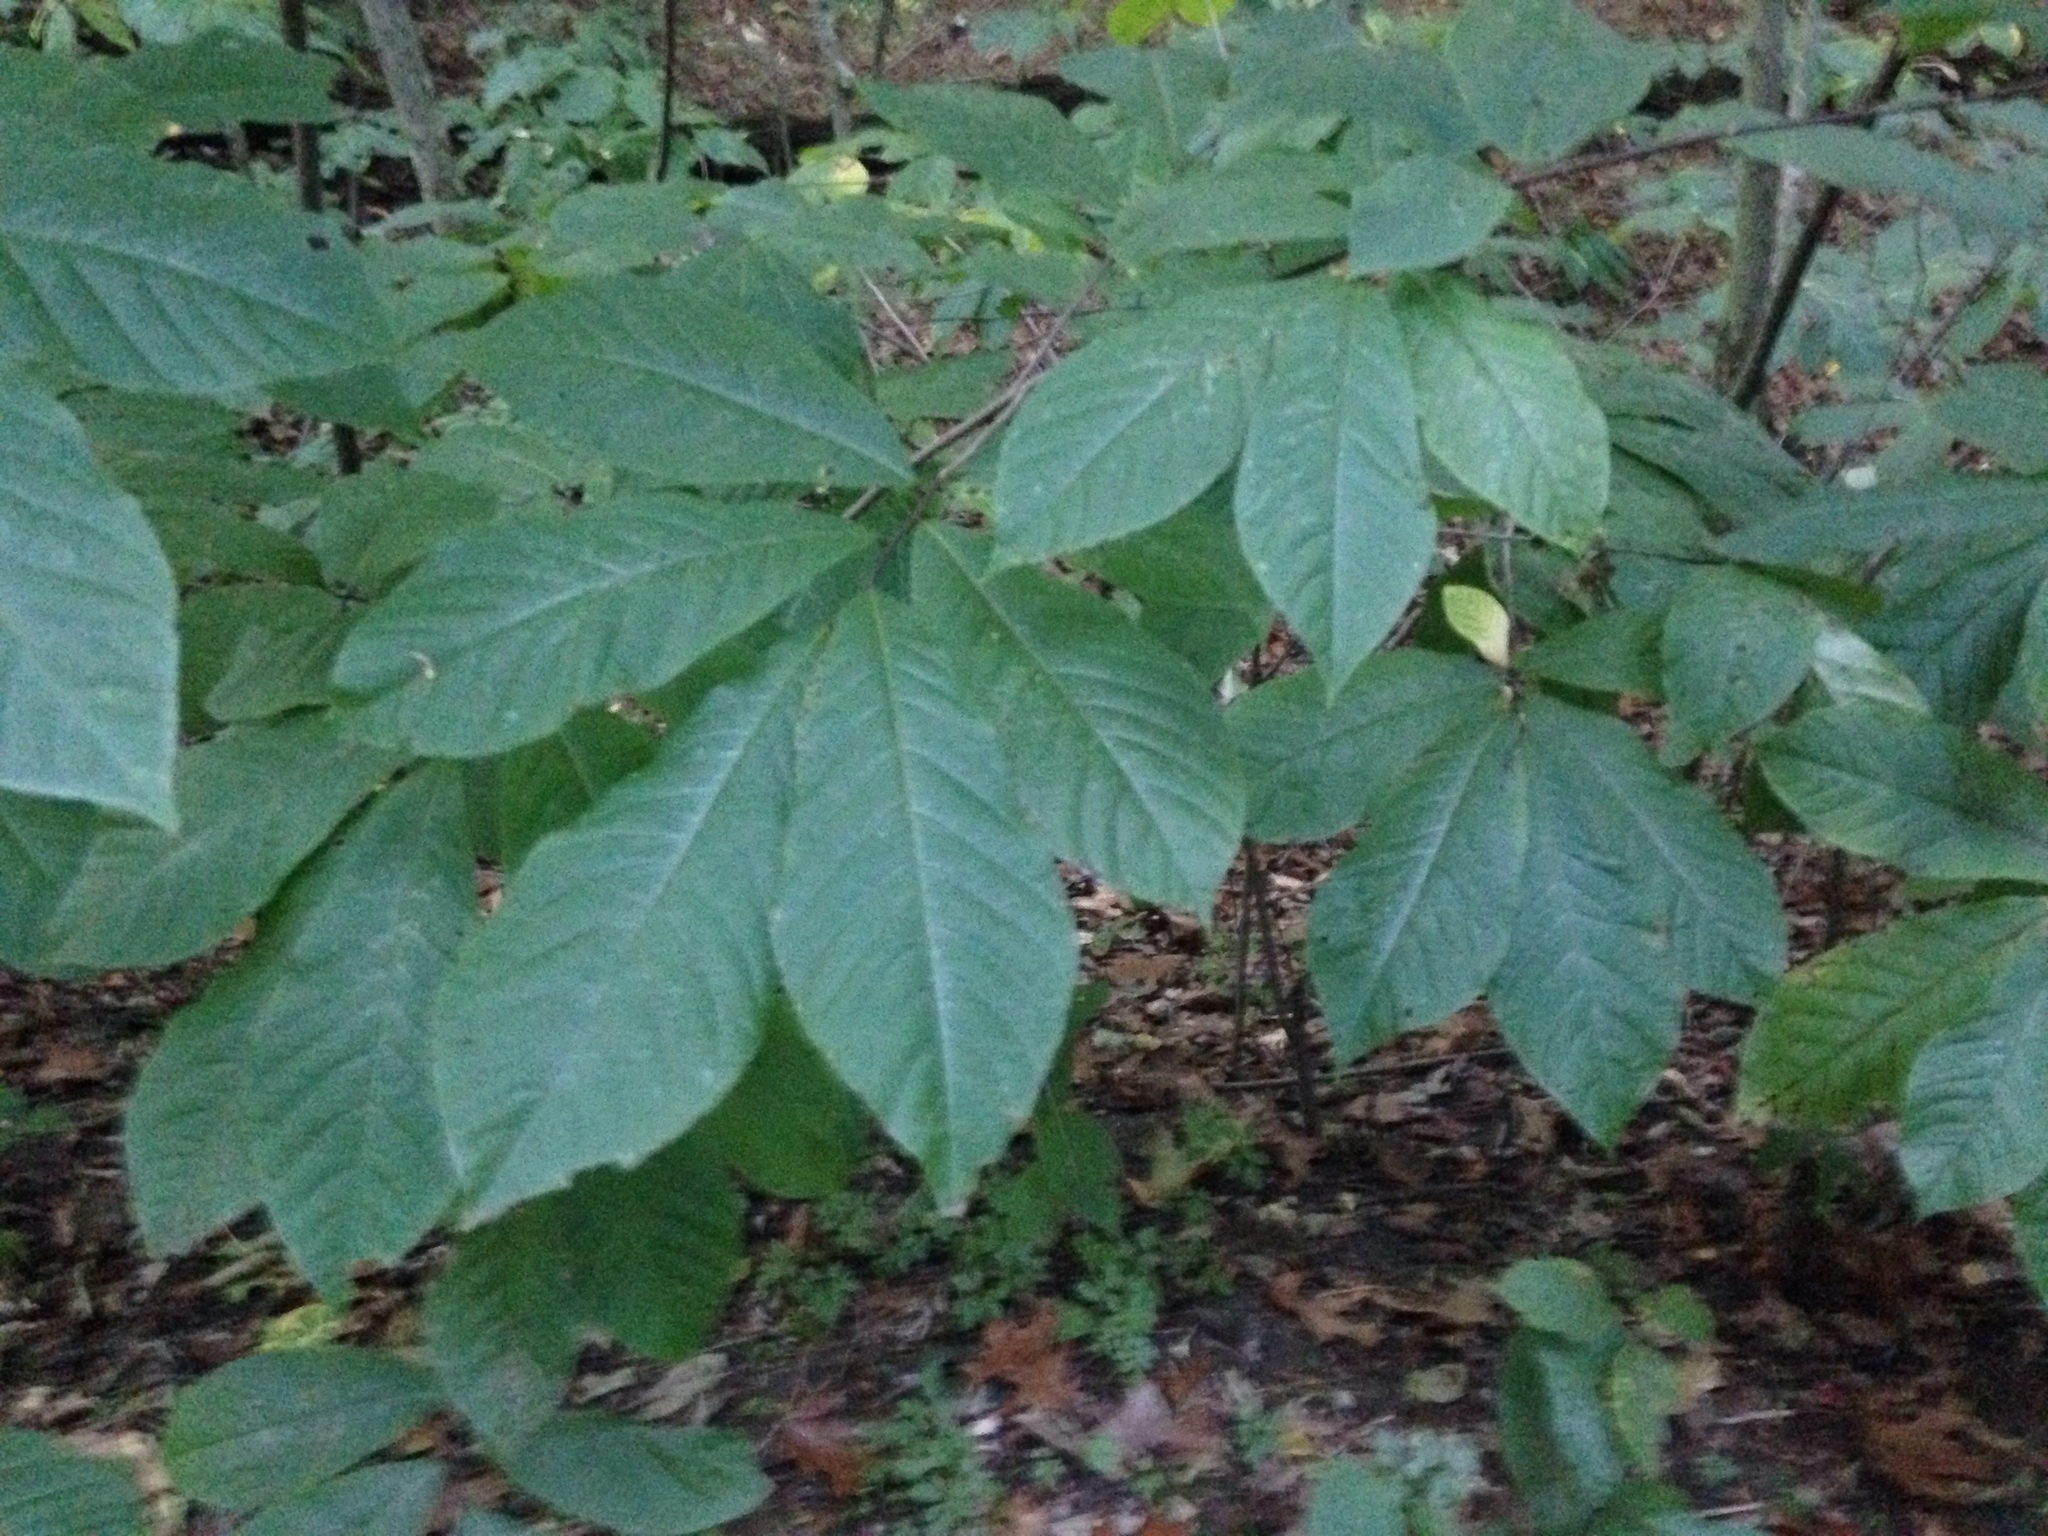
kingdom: Plantae
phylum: Tracheophyta
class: Magnoliopsida
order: Magnoliales
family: Annonaceae
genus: Asimina
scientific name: Asimina triloba
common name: Dog-banana
